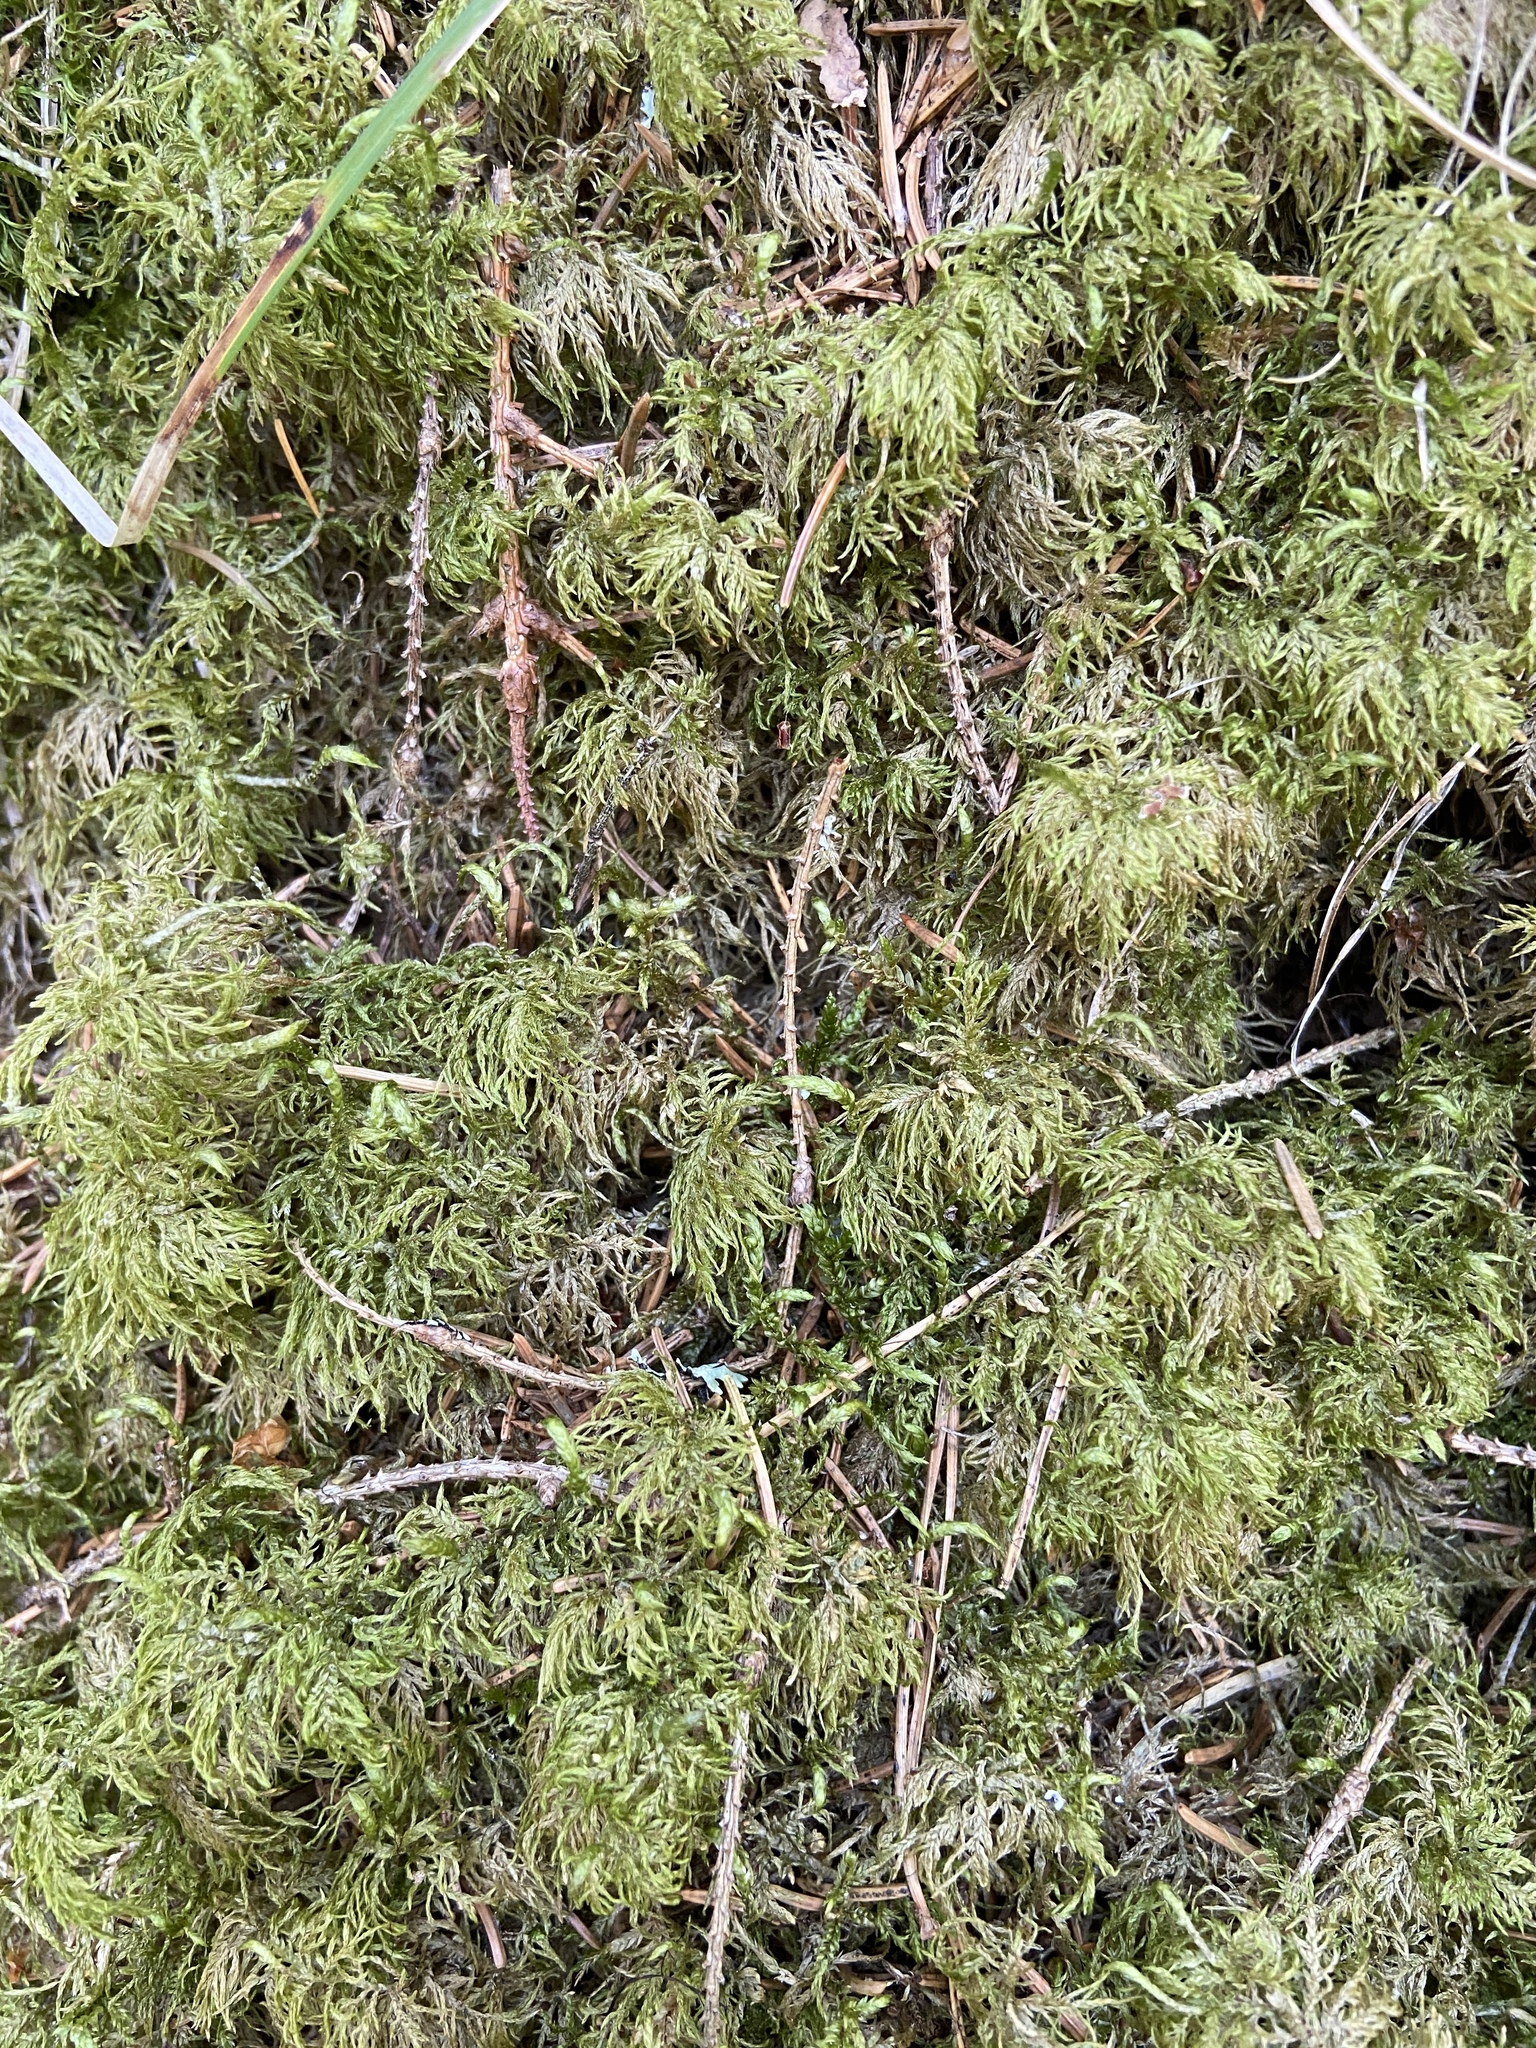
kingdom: Plantae
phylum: Bryophyta
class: Bryopsida
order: Hypnales
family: Hylocomiaceae
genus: Hylocomium
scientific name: Hylocomium splendens
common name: Stairstep moss
